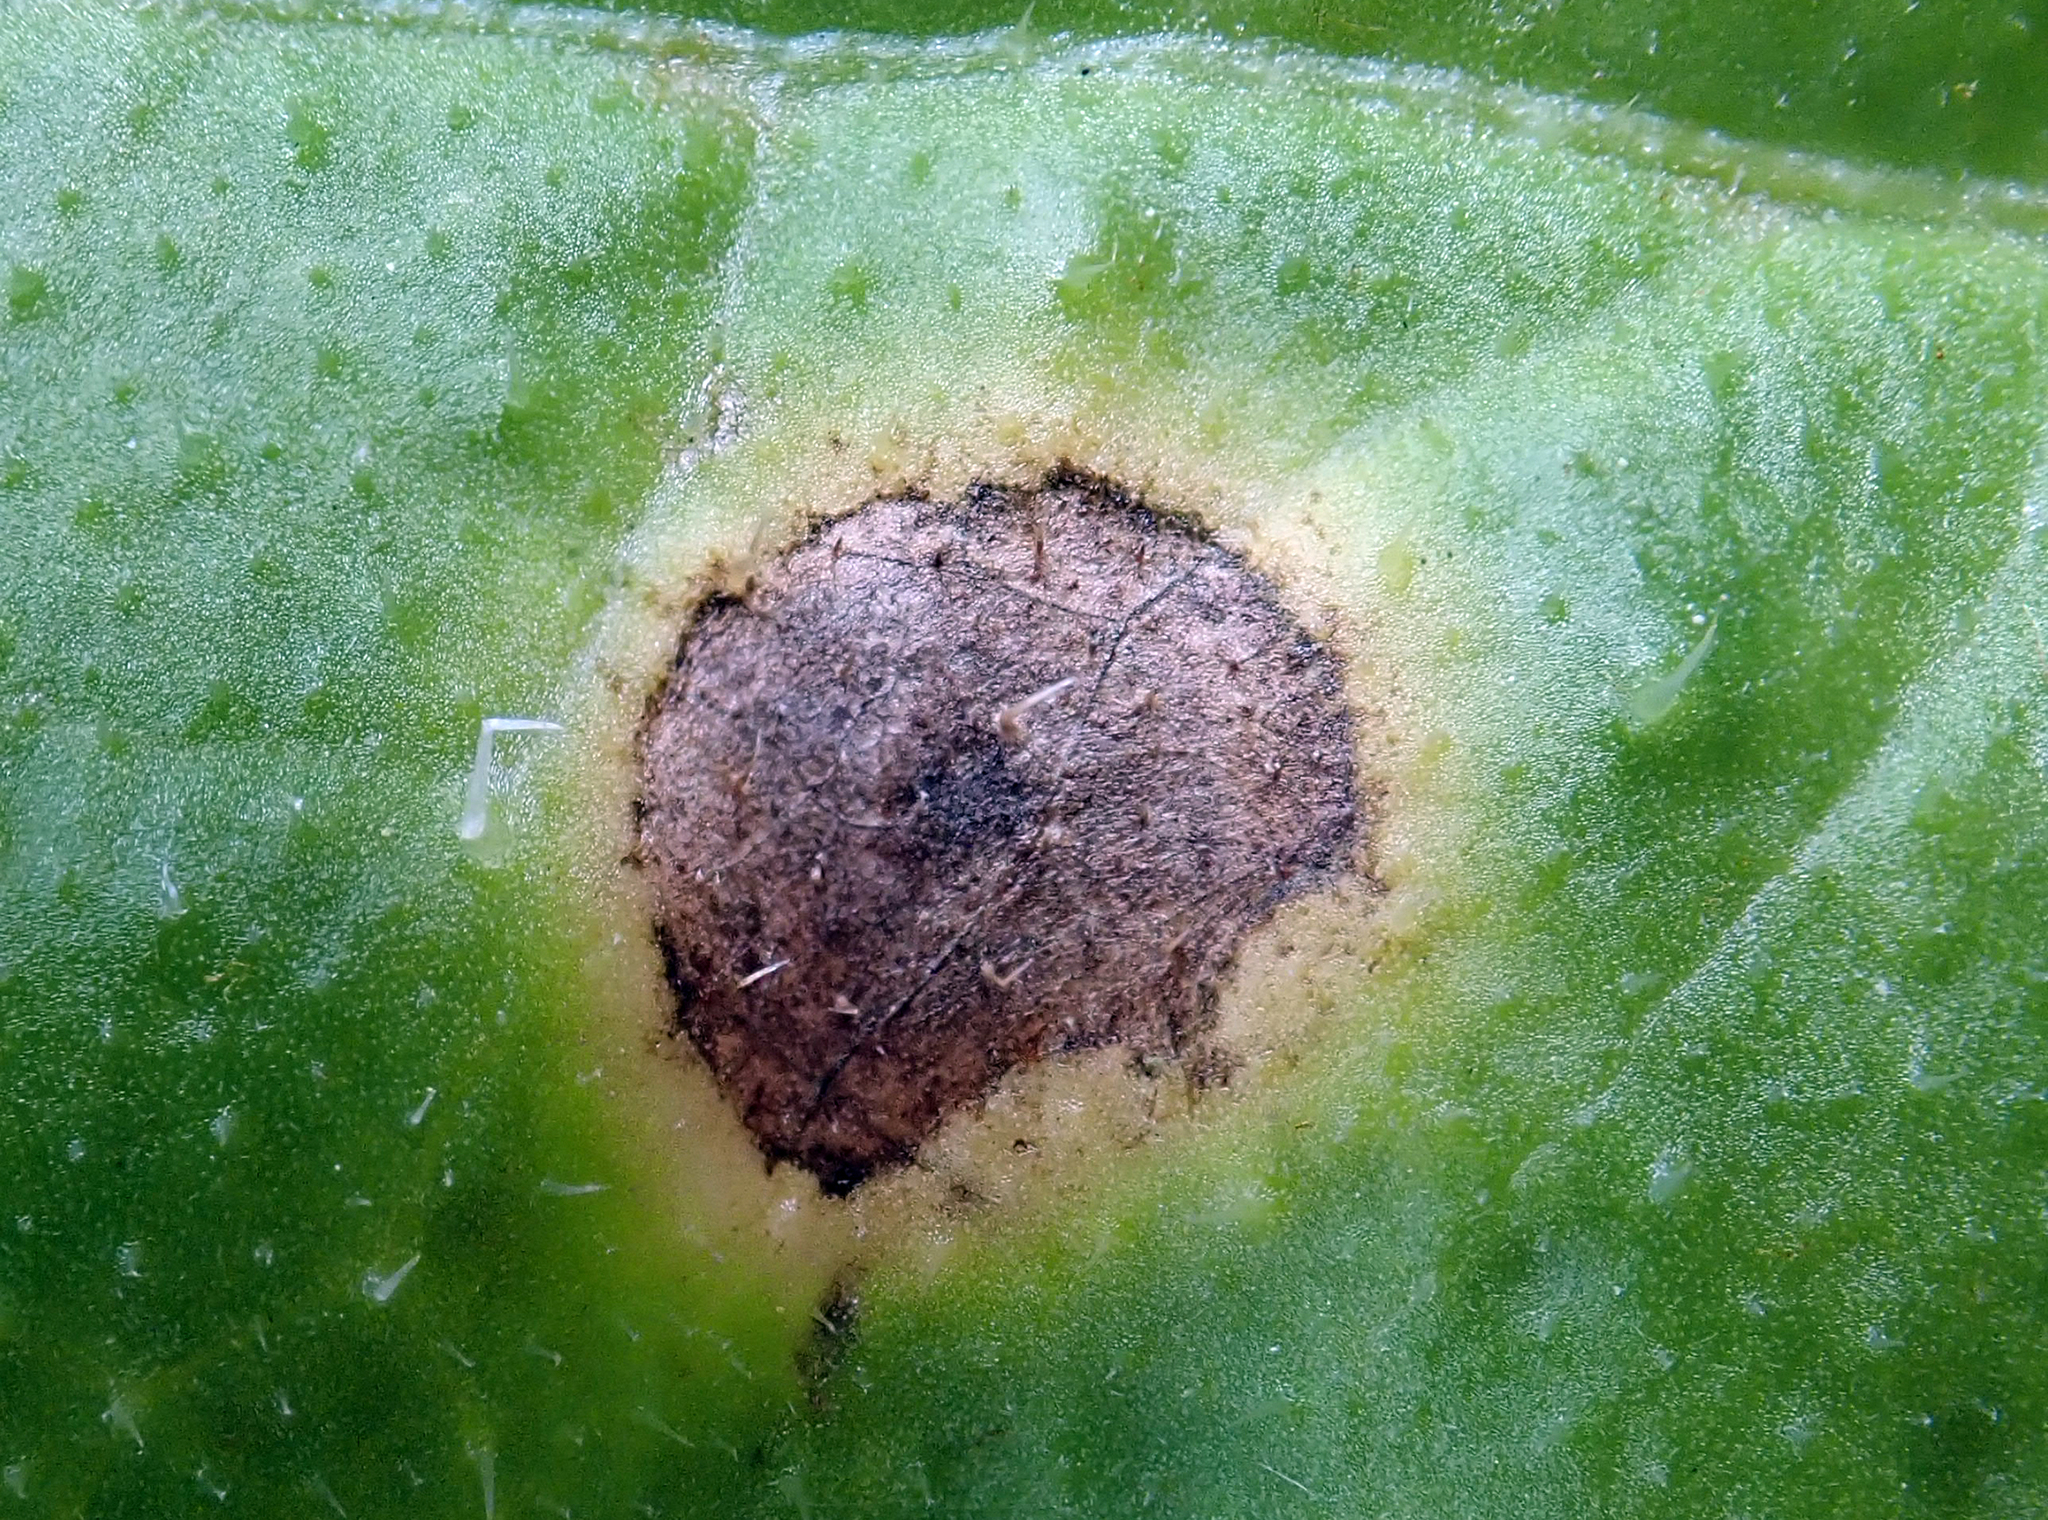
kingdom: Fungi
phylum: Ascomycota
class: Dothideomycetes
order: Capnodiales
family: Mycosphaerellaceae
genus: Ramularia
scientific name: Ramularia helminthiae
